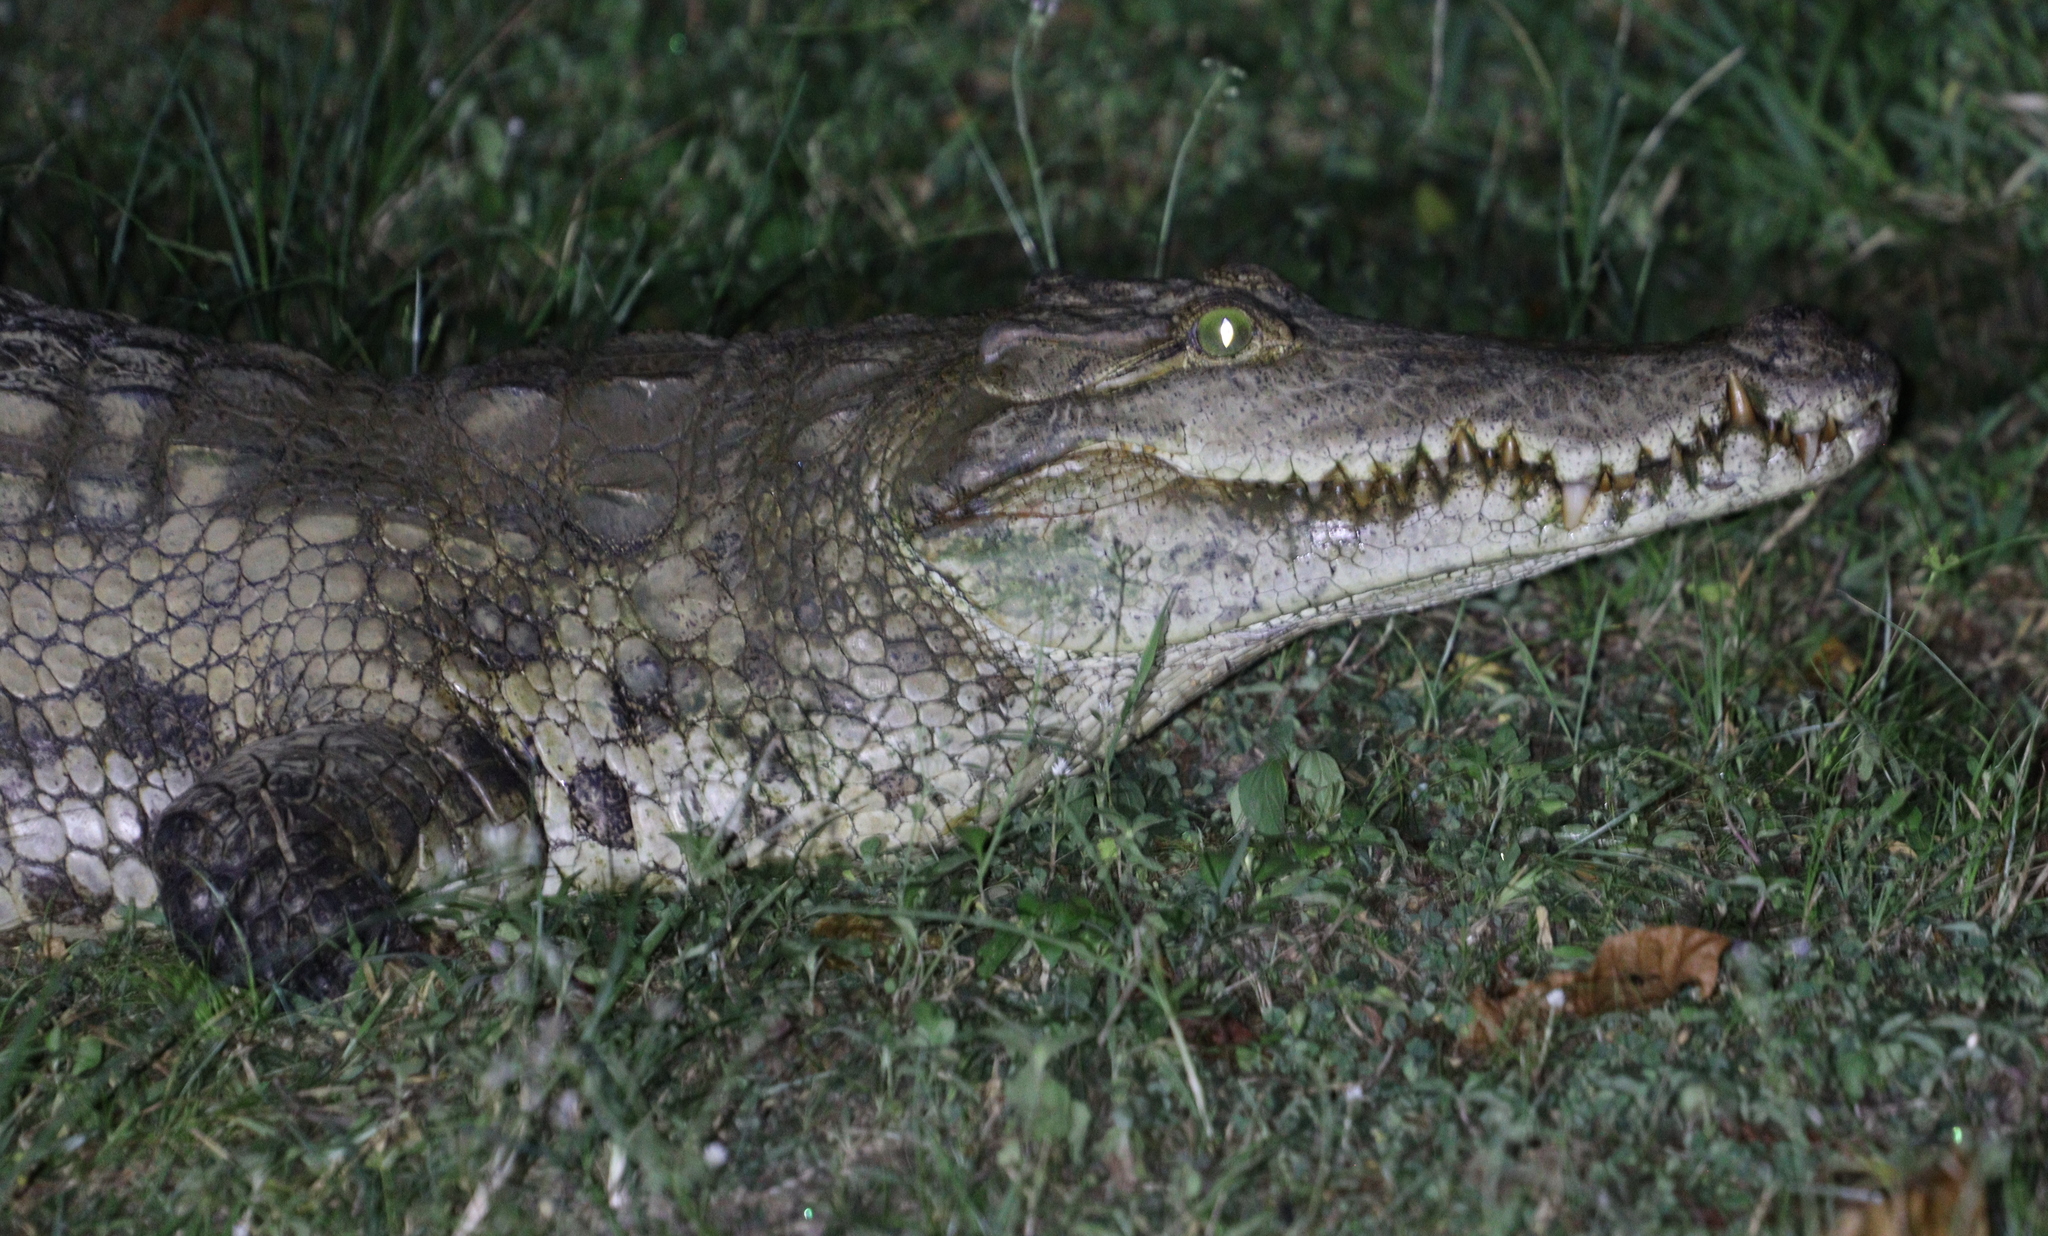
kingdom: Animalia
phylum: Chordata
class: Crocodylia
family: Crocodylidae
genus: Crocodylus
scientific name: Crocodylus suchus
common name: West african crocodile
